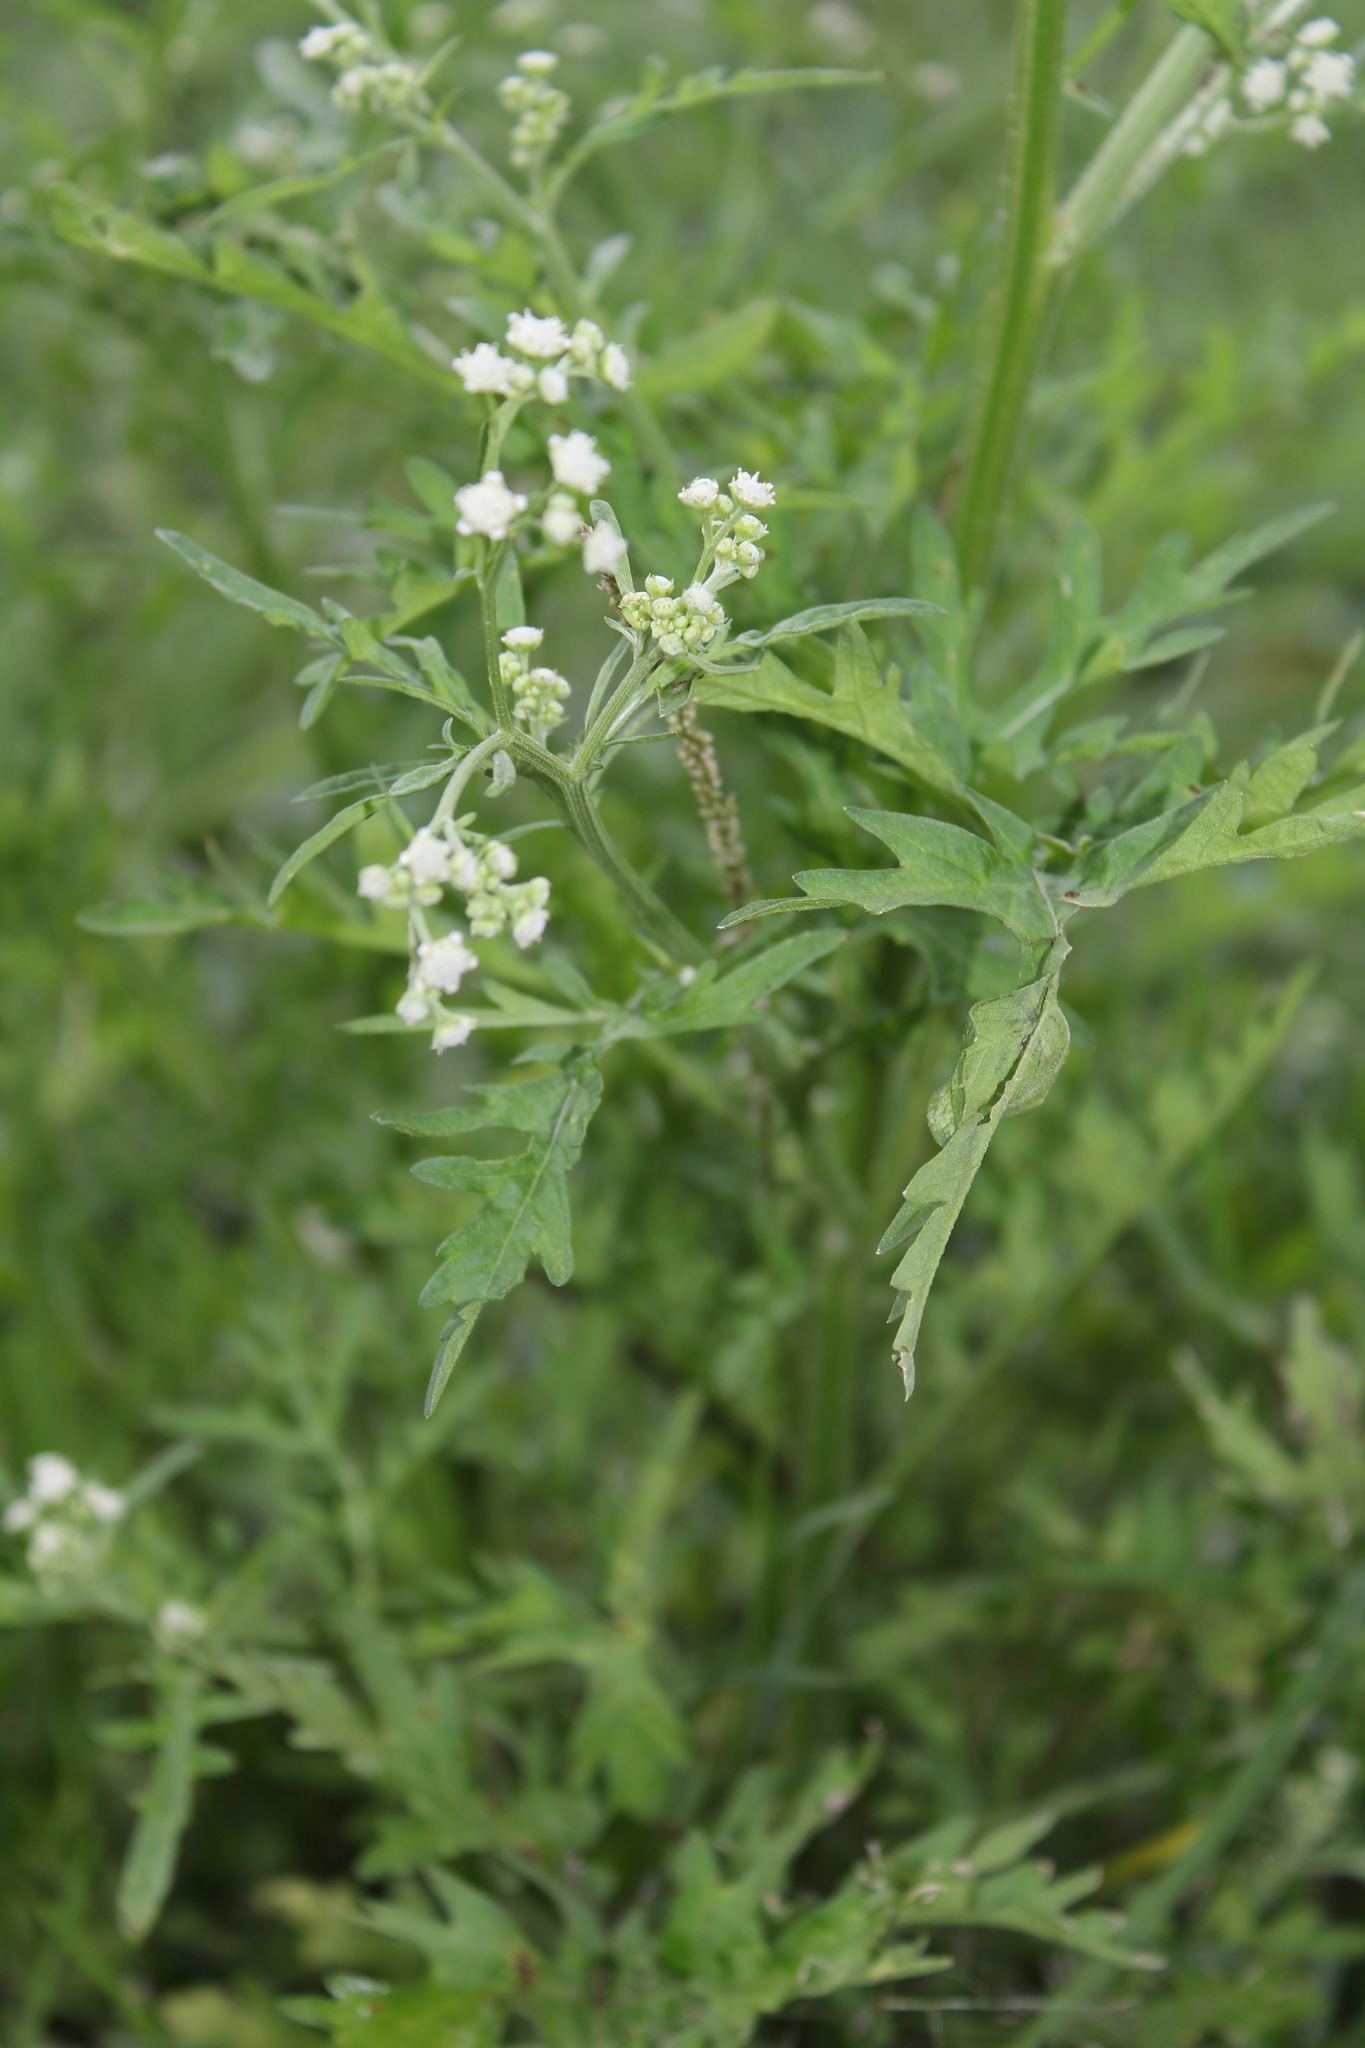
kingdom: Plantae
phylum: Tracheophyta
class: Magnoliopsida
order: Asterales
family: Asteraceae
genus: Parthenium
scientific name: Parthenium hysterophorus
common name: Santa maria feverfew
